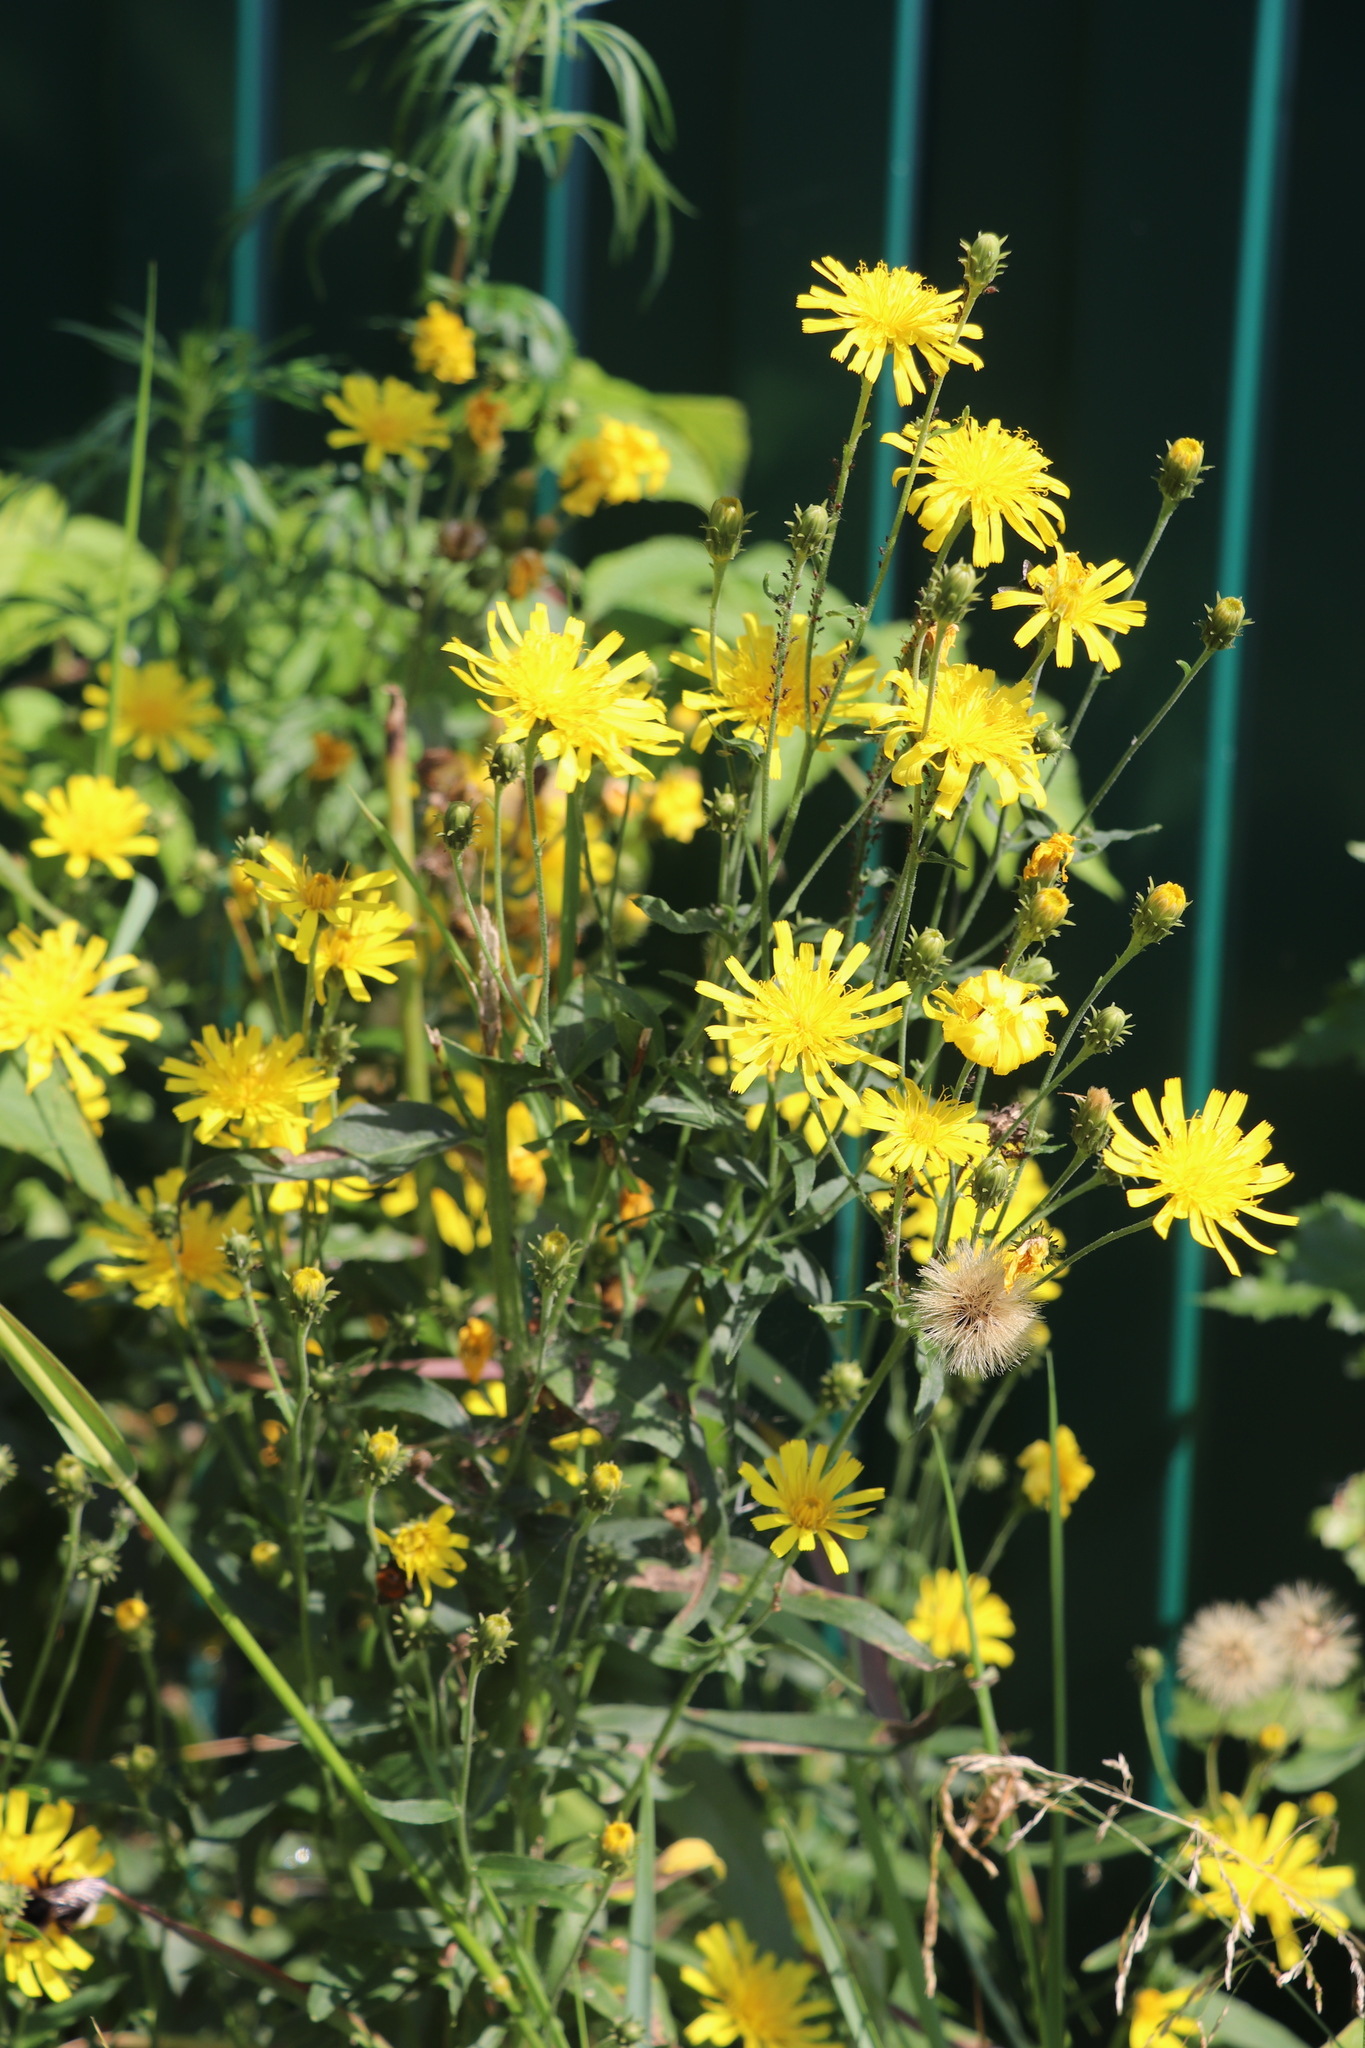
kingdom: Plantae
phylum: Tracheophyta
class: Magnoliopsida
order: Asterales
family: Asteraceae
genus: Hieracium
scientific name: Hieracium umbellatum
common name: Northern hawkweed
